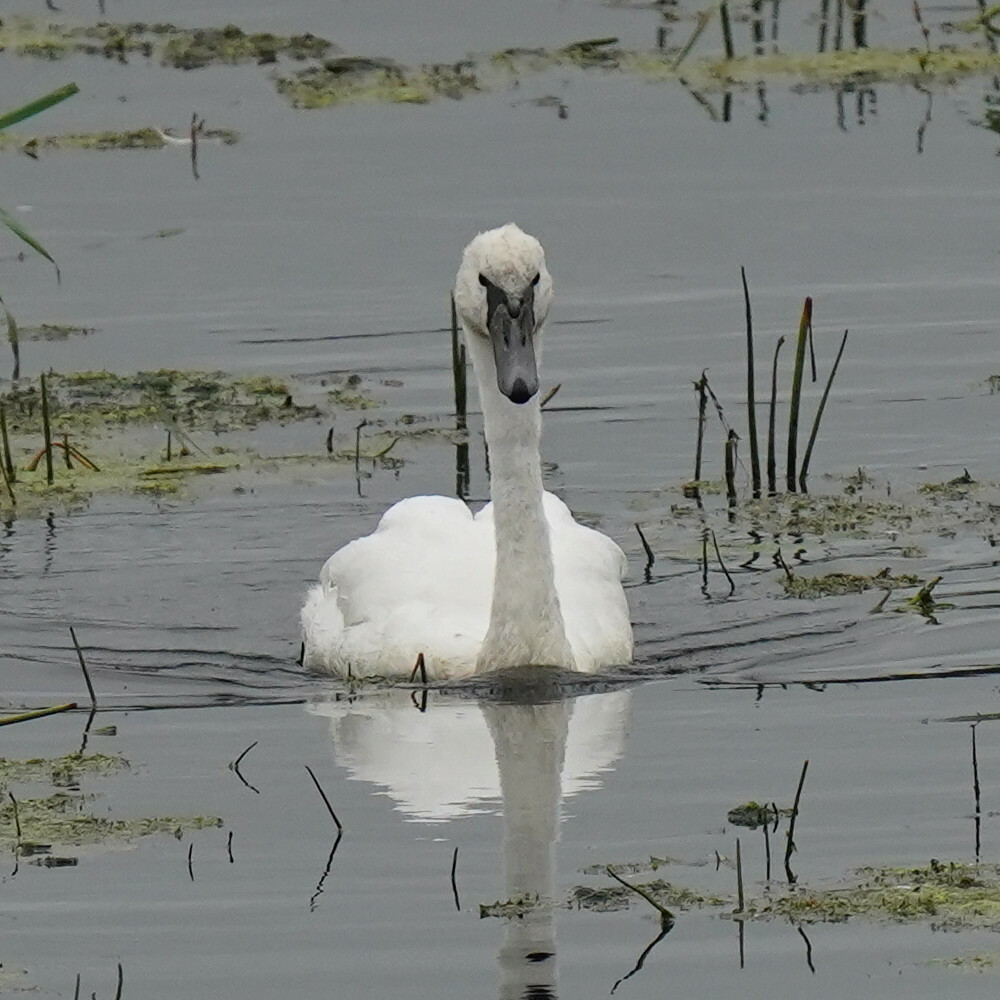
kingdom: Animalia
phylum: Chordata
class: Aves
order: Anseriformes
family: Anatidae
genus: Cygnus
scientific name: Cygnus olor
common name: Mute swan
